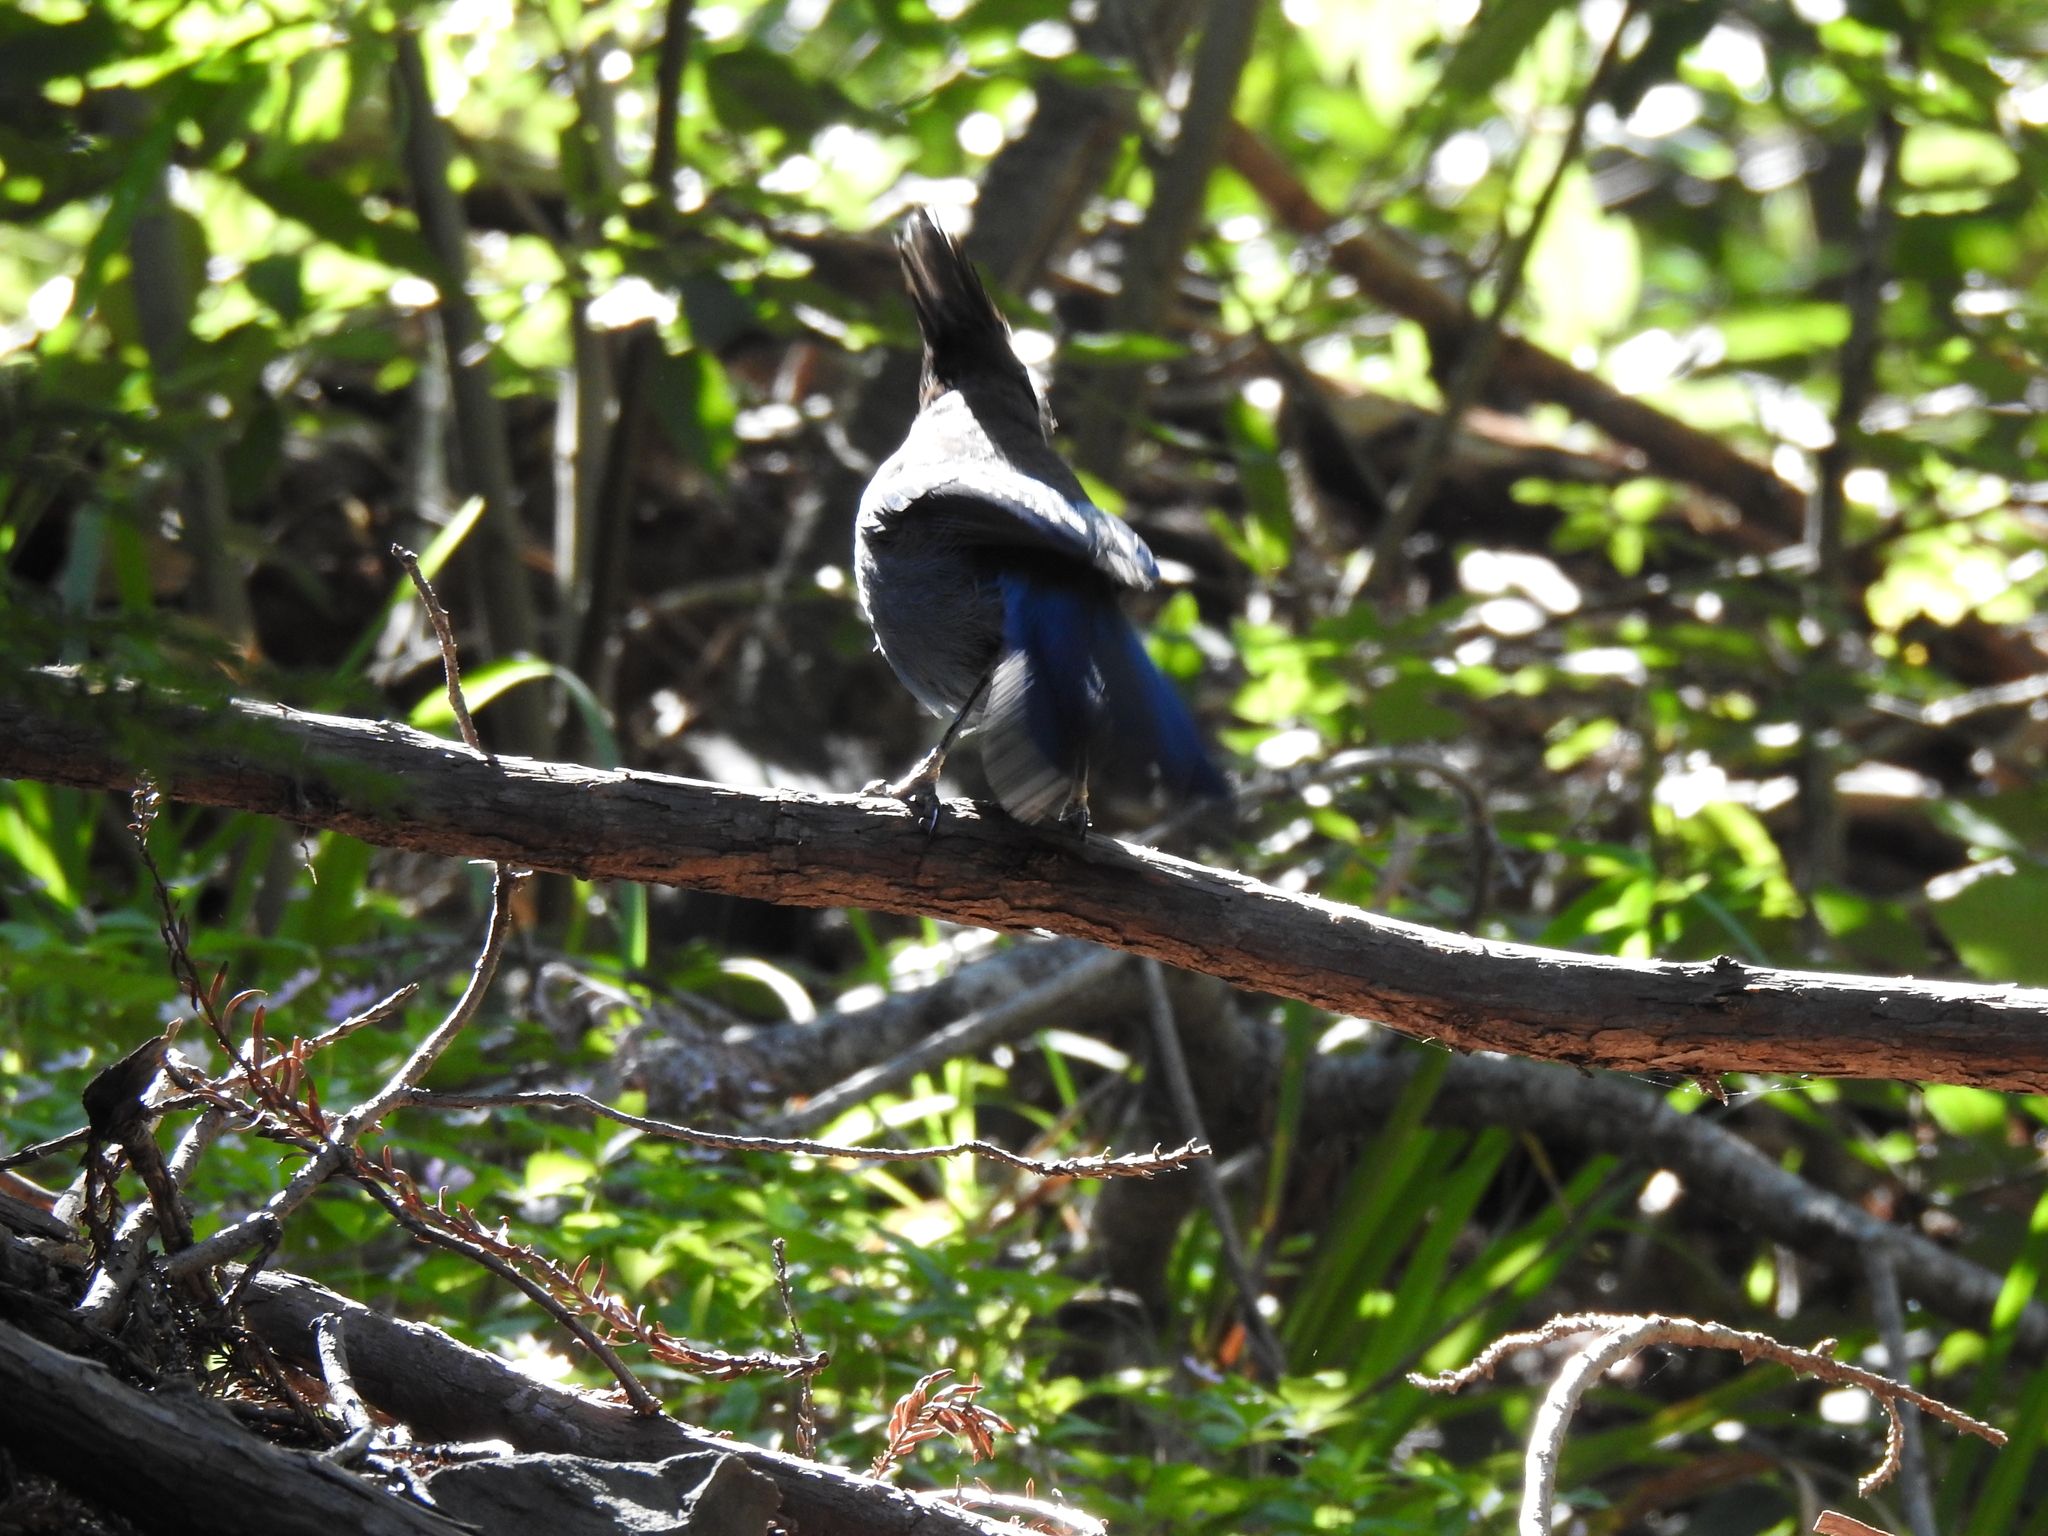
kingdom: Animalia
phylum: Chordata
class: Aves
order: Passeriformes
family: Corvidae
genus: Cyanocitta
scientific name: Cyanocitta stelleri
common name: Steller's jay
